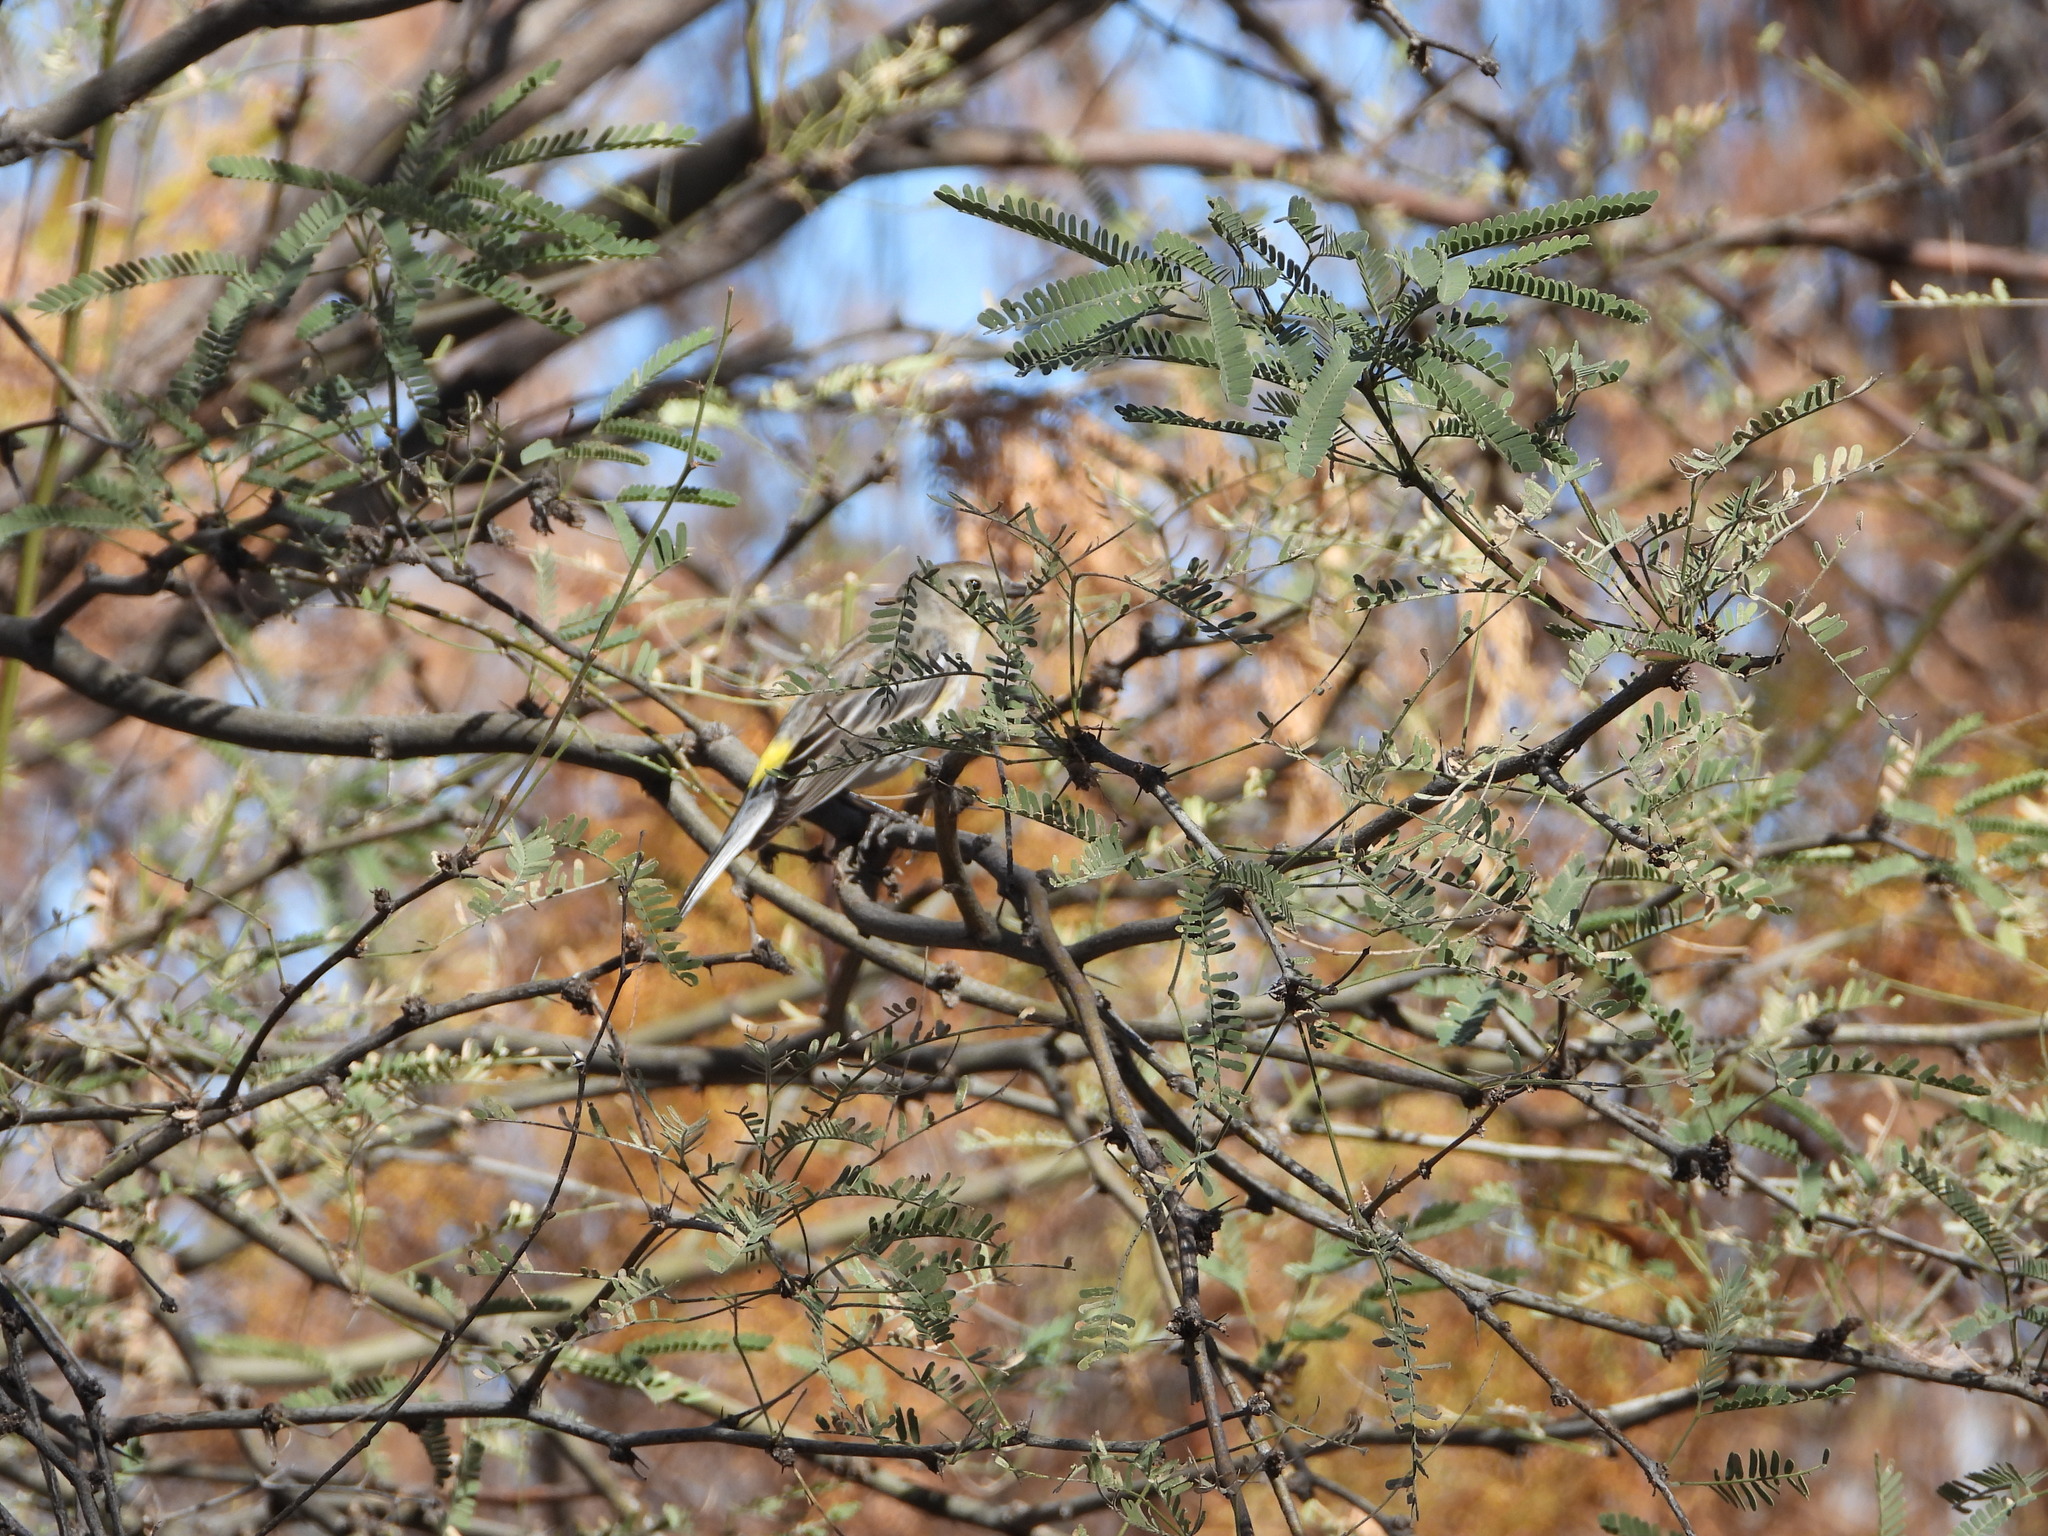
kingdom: Animalia
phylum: Chordata
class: Aves
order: Passeriformes
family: Parulidae
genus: Setophaga
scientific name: Setophaga coronata
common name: Myrtle warbler
